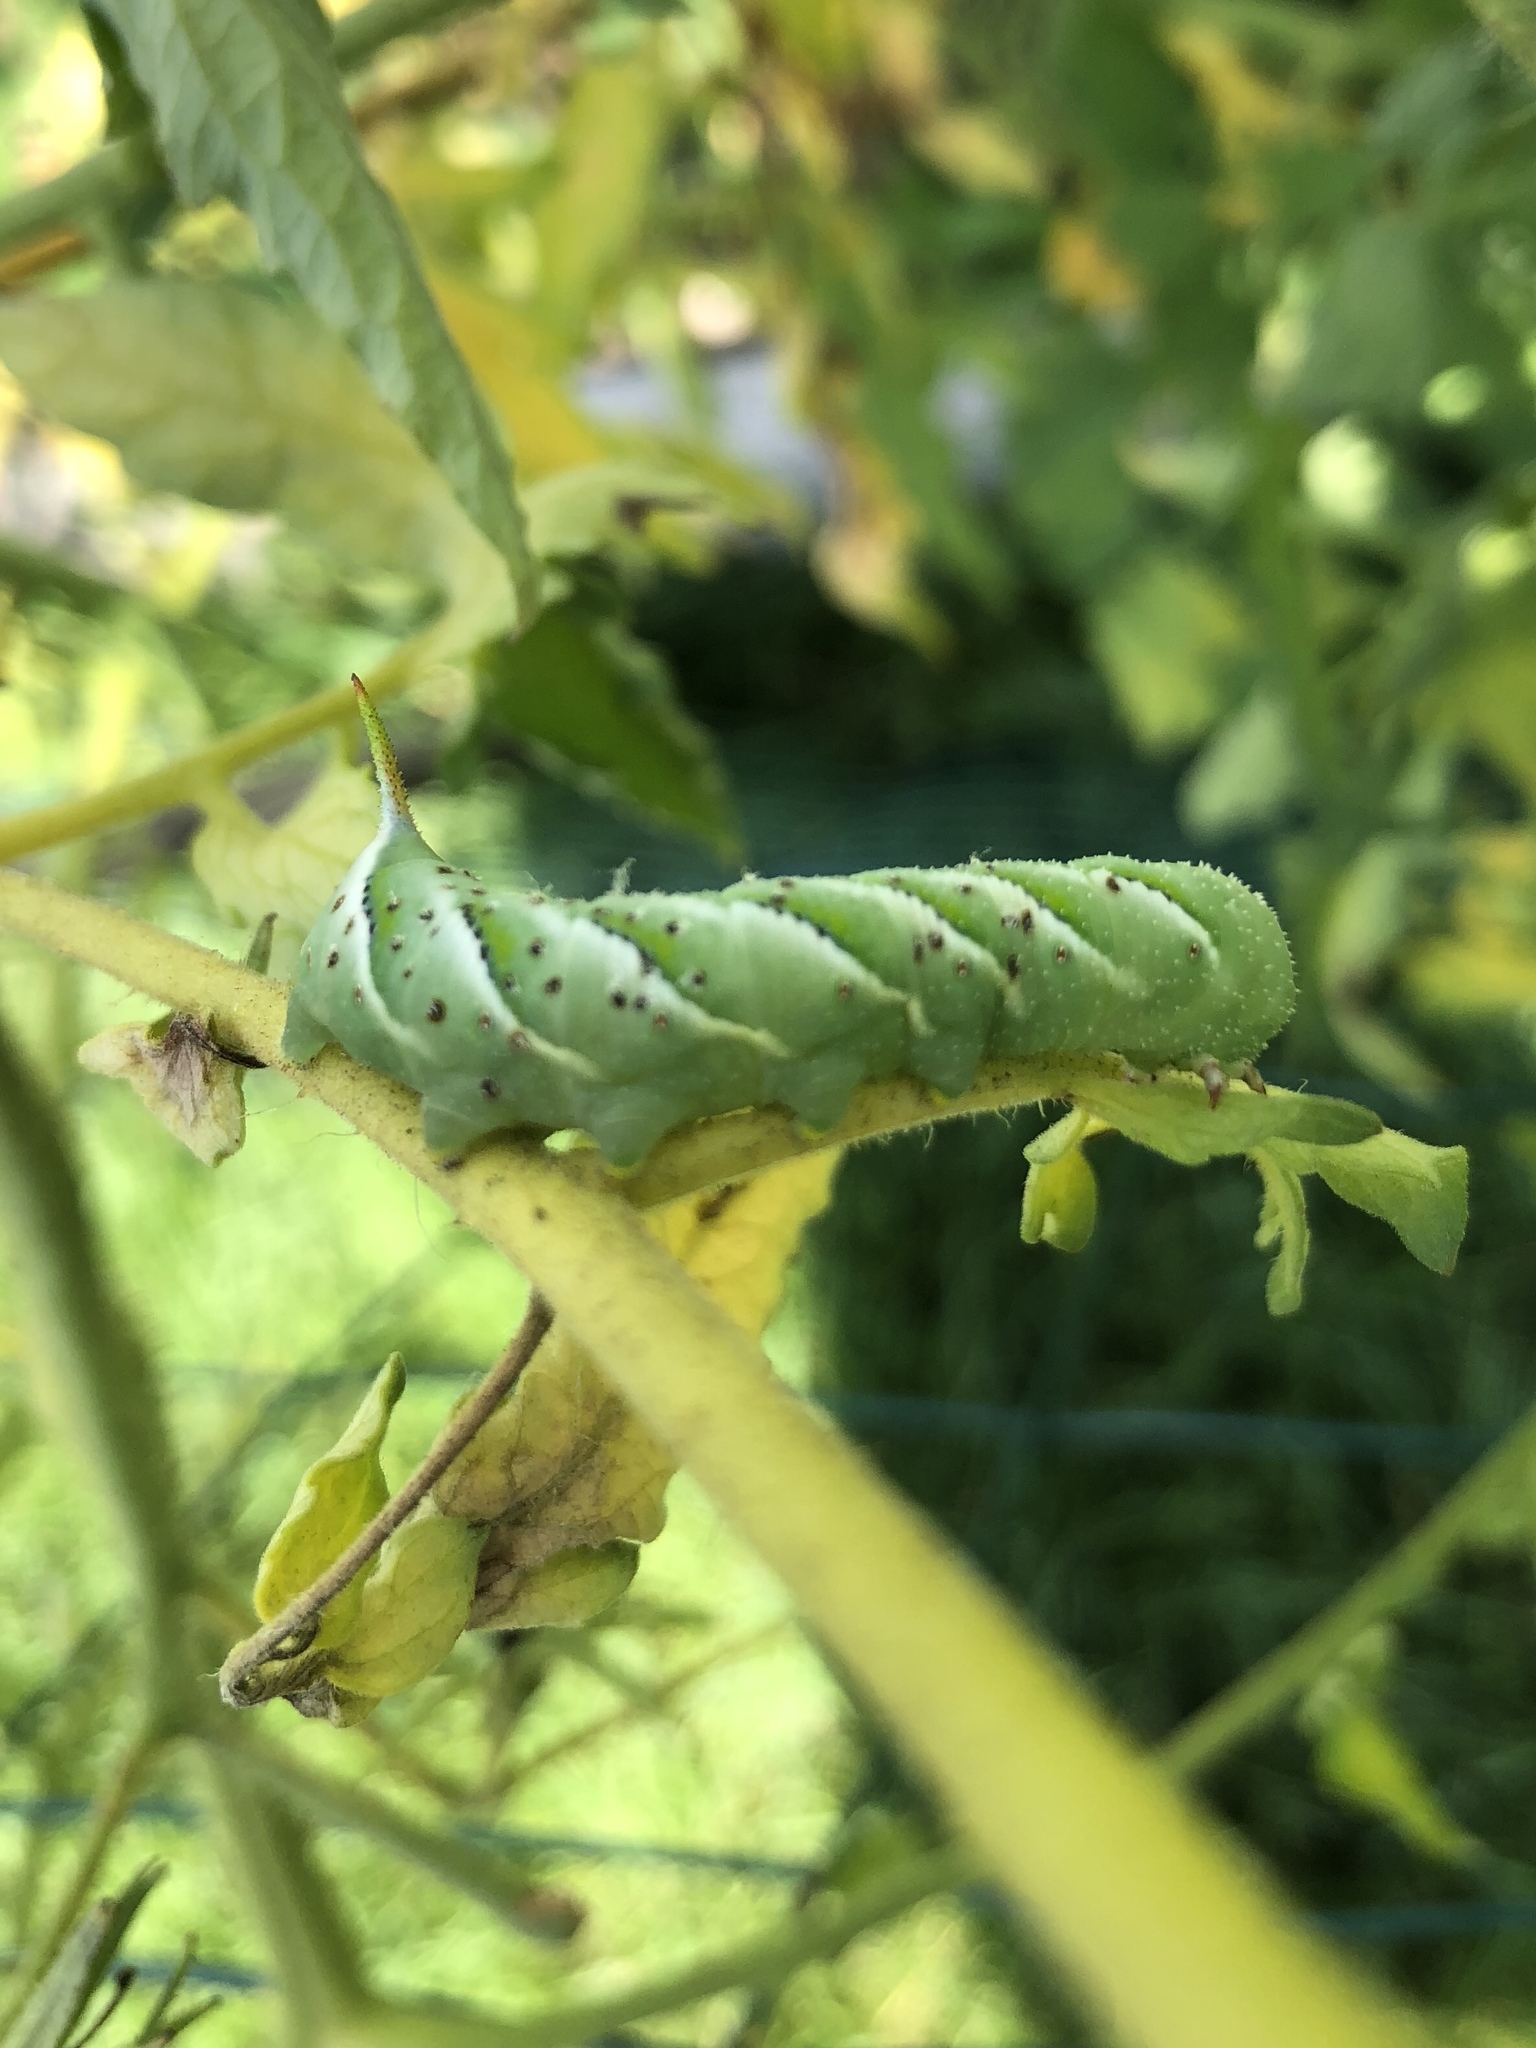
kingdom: Animalia
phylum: Arthropoda
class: Insecta
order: Lepidoptera
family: Sphingidae
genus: Manduca
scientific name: Manduca sexta
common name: Carolina sphinx
